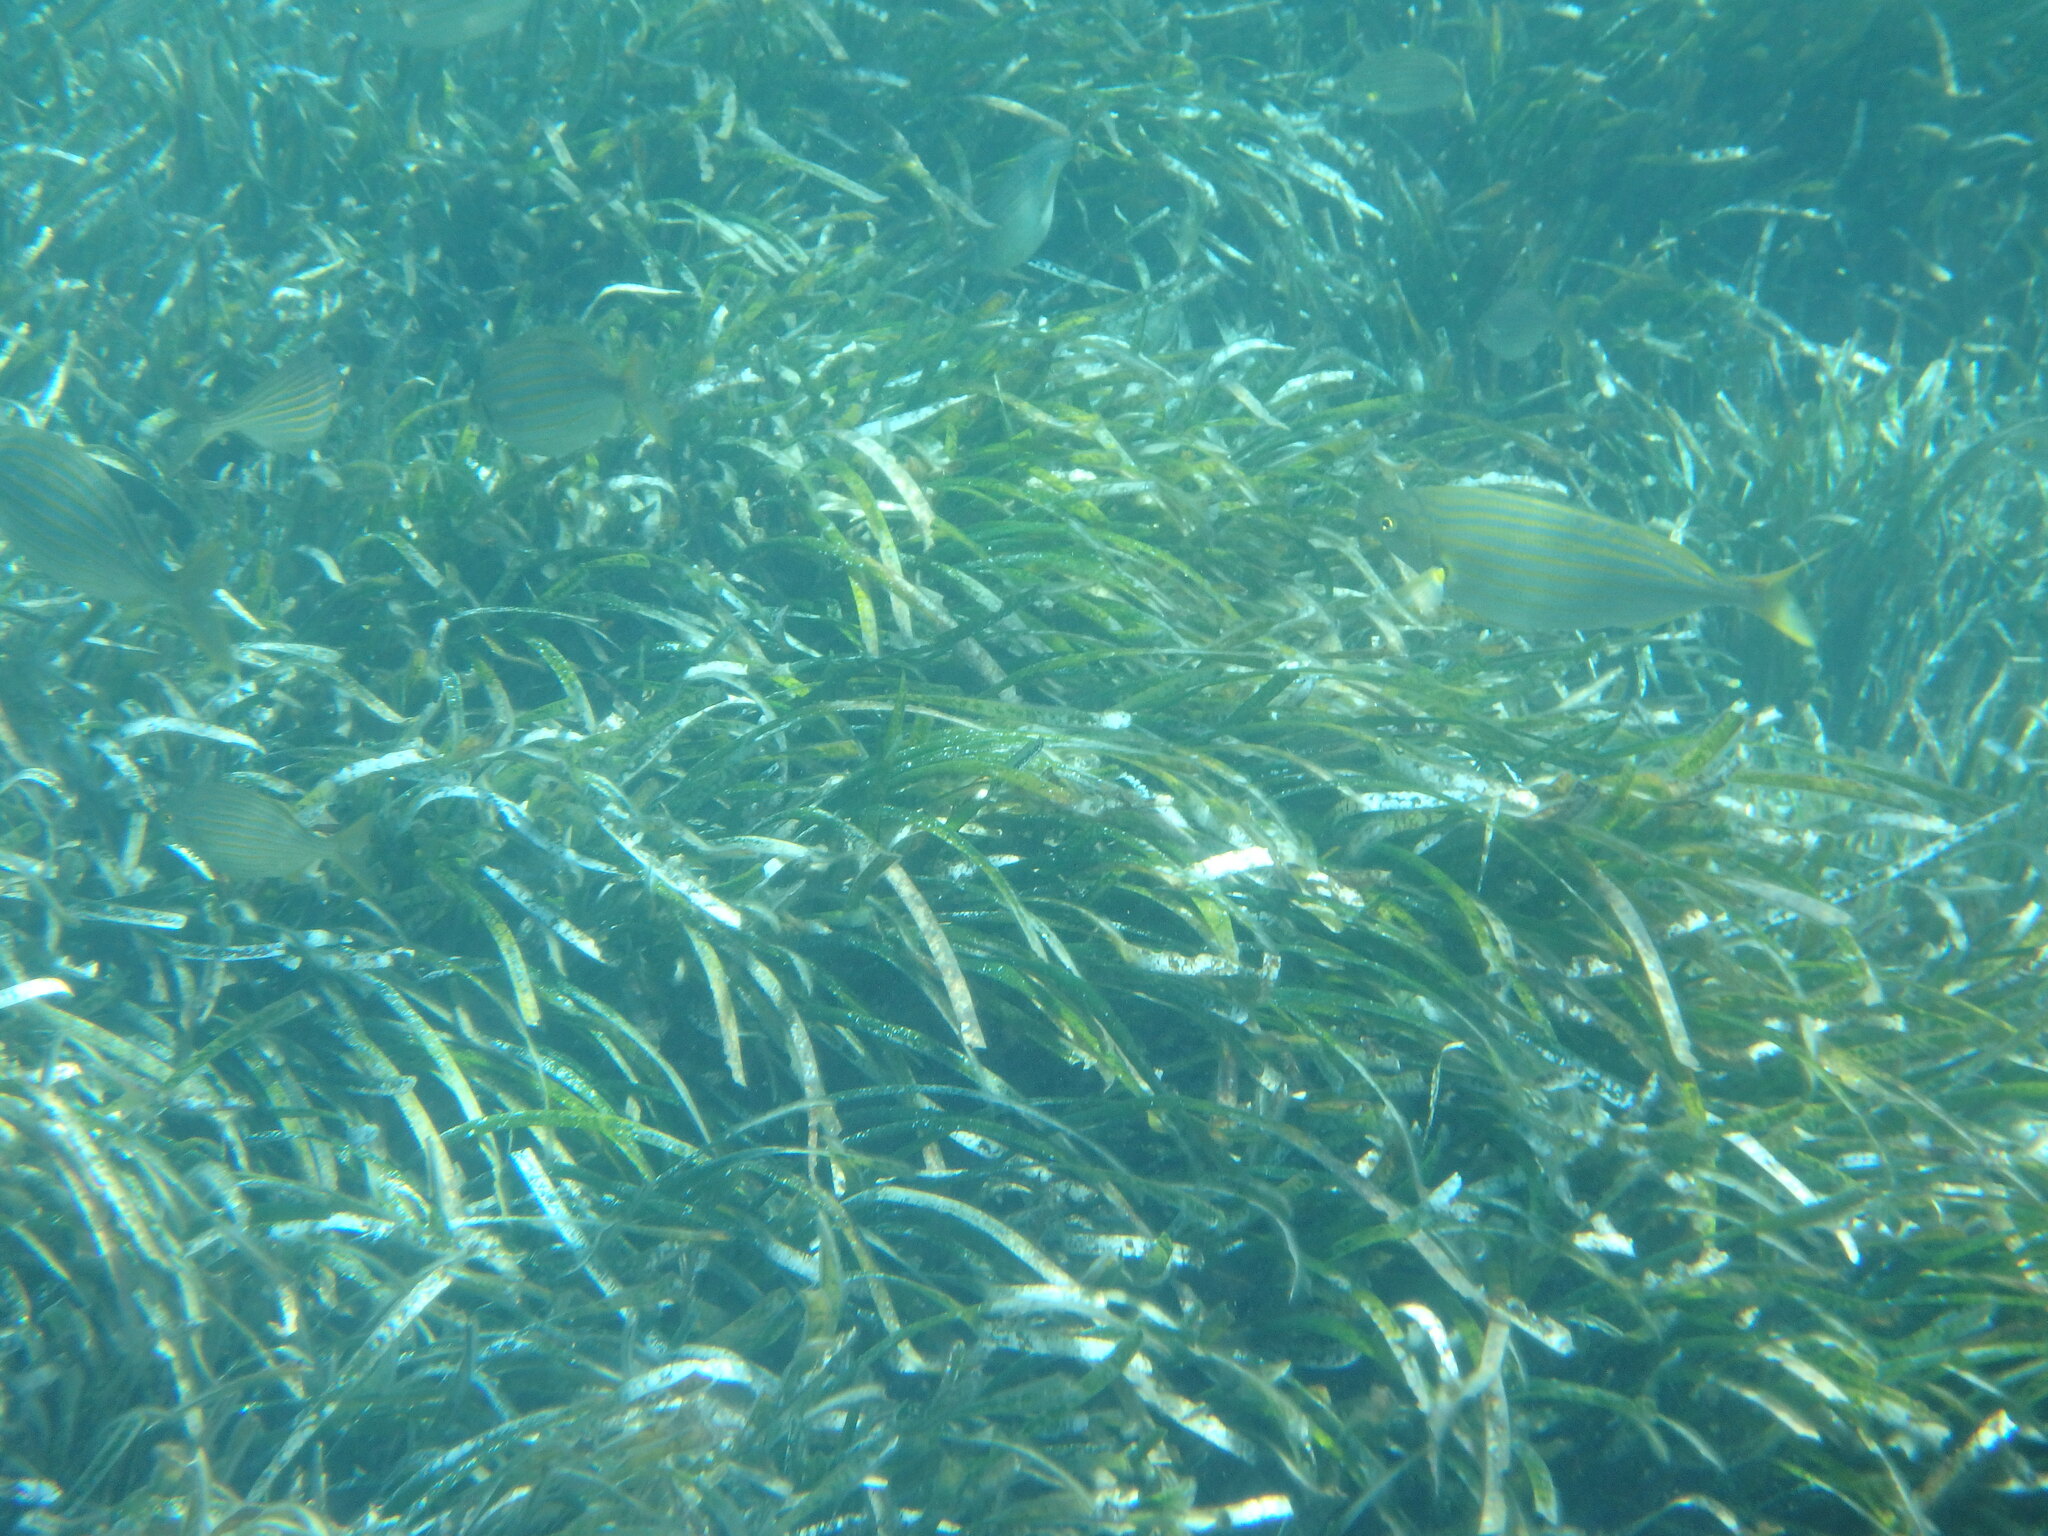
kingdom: Animalia
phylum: Chordata
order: Perciformes
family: Sparidae
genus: Sarpa
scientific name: Sarpa salpa
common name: Salema
